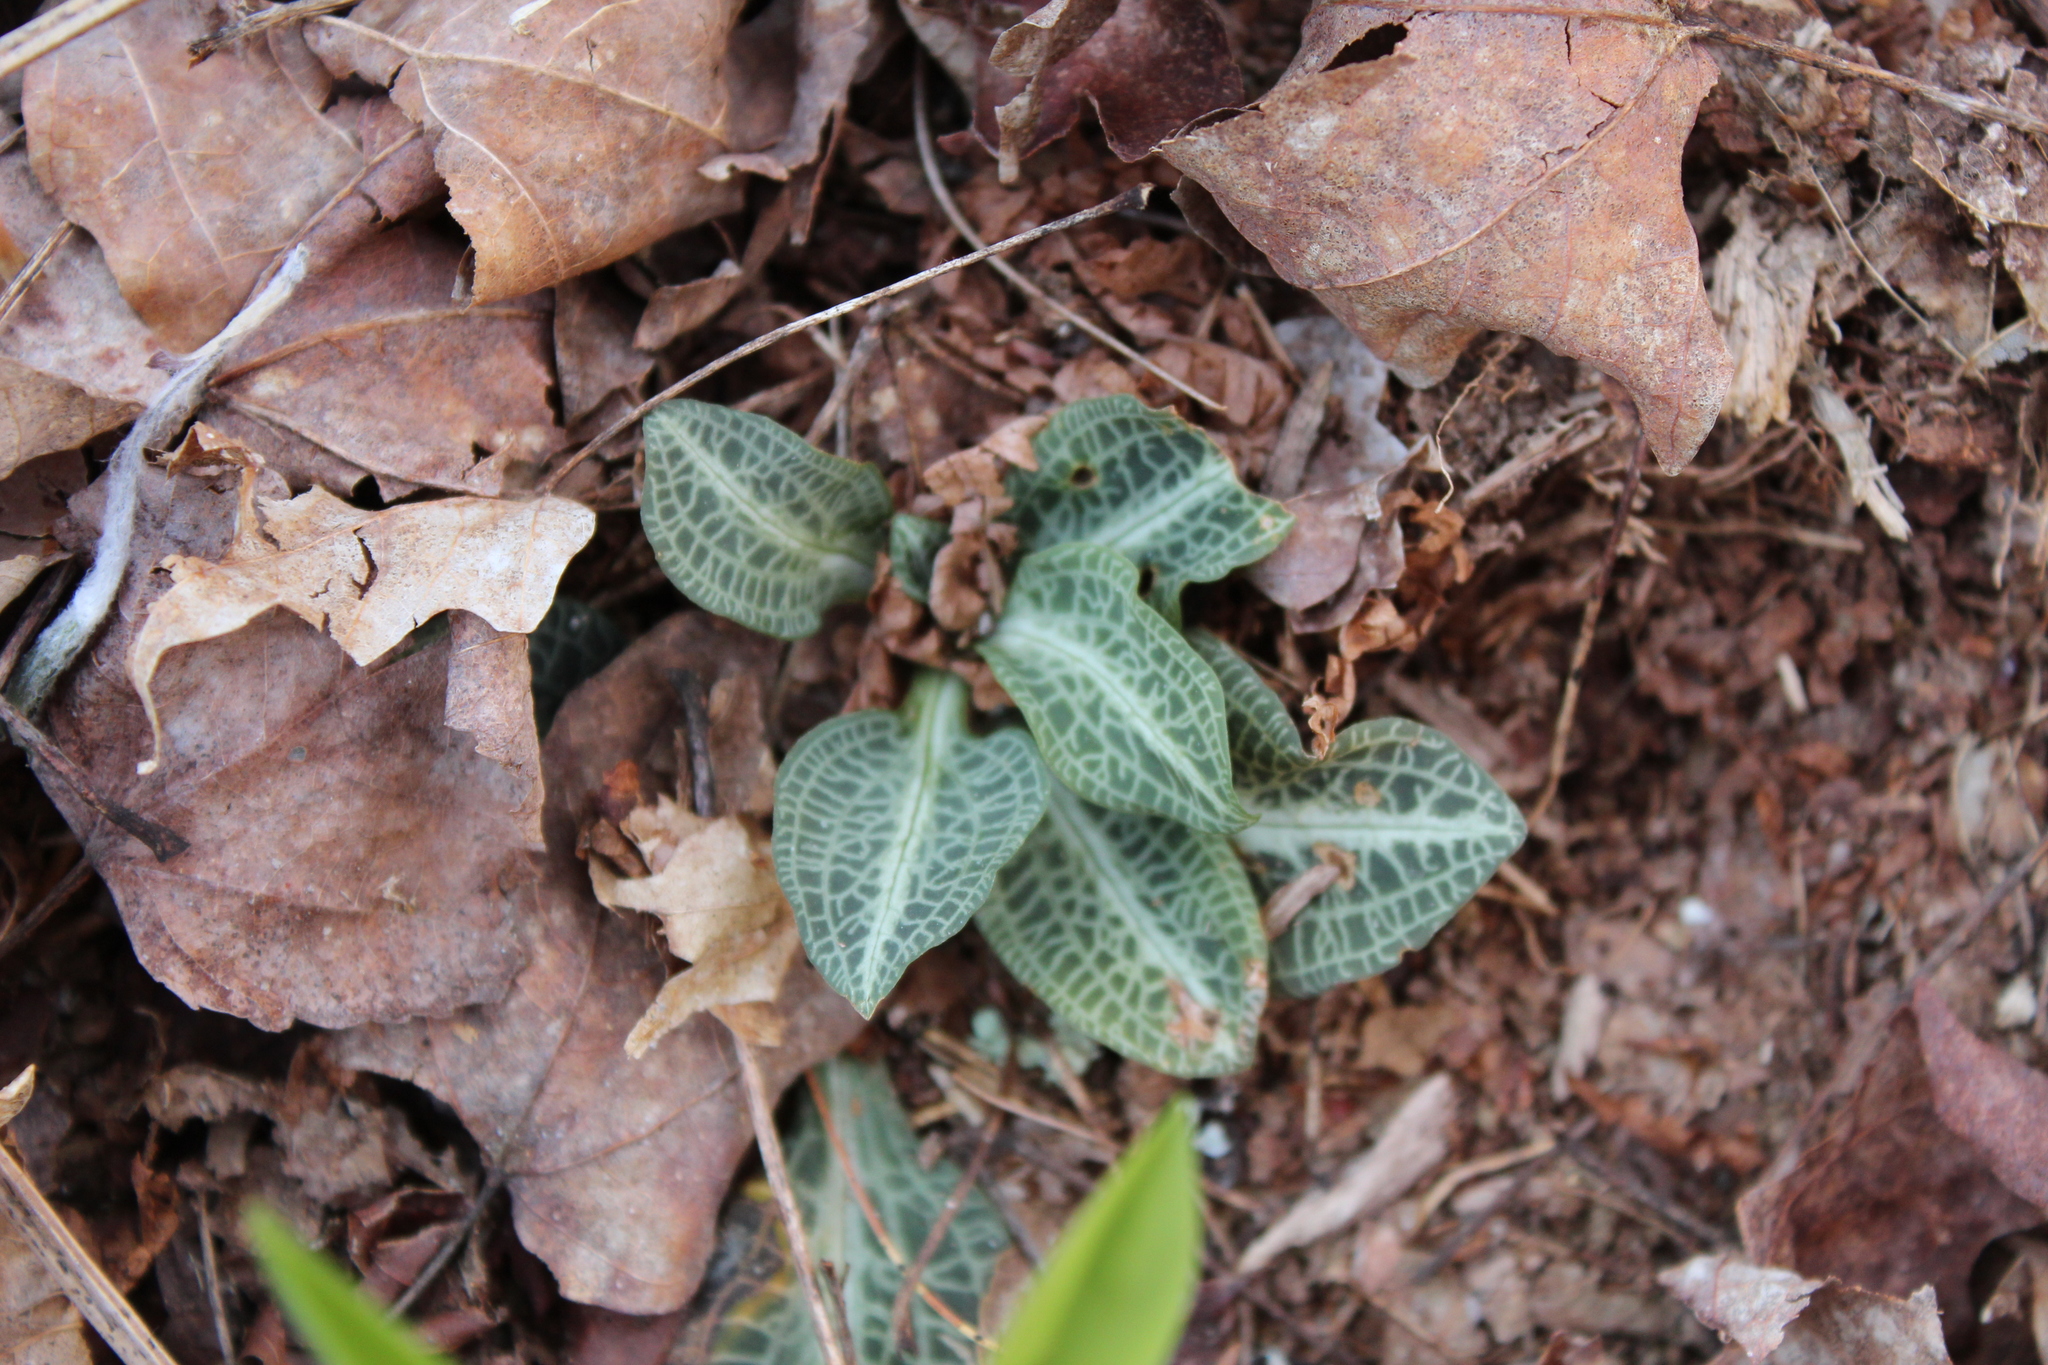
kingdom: Plantae
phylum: Tracheophyta
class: Liliopsida
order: Asparagales
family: Orchidaceae
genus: Goodyera
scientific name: Goodyera pubescens
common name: Downy rattlesnake-plantain
